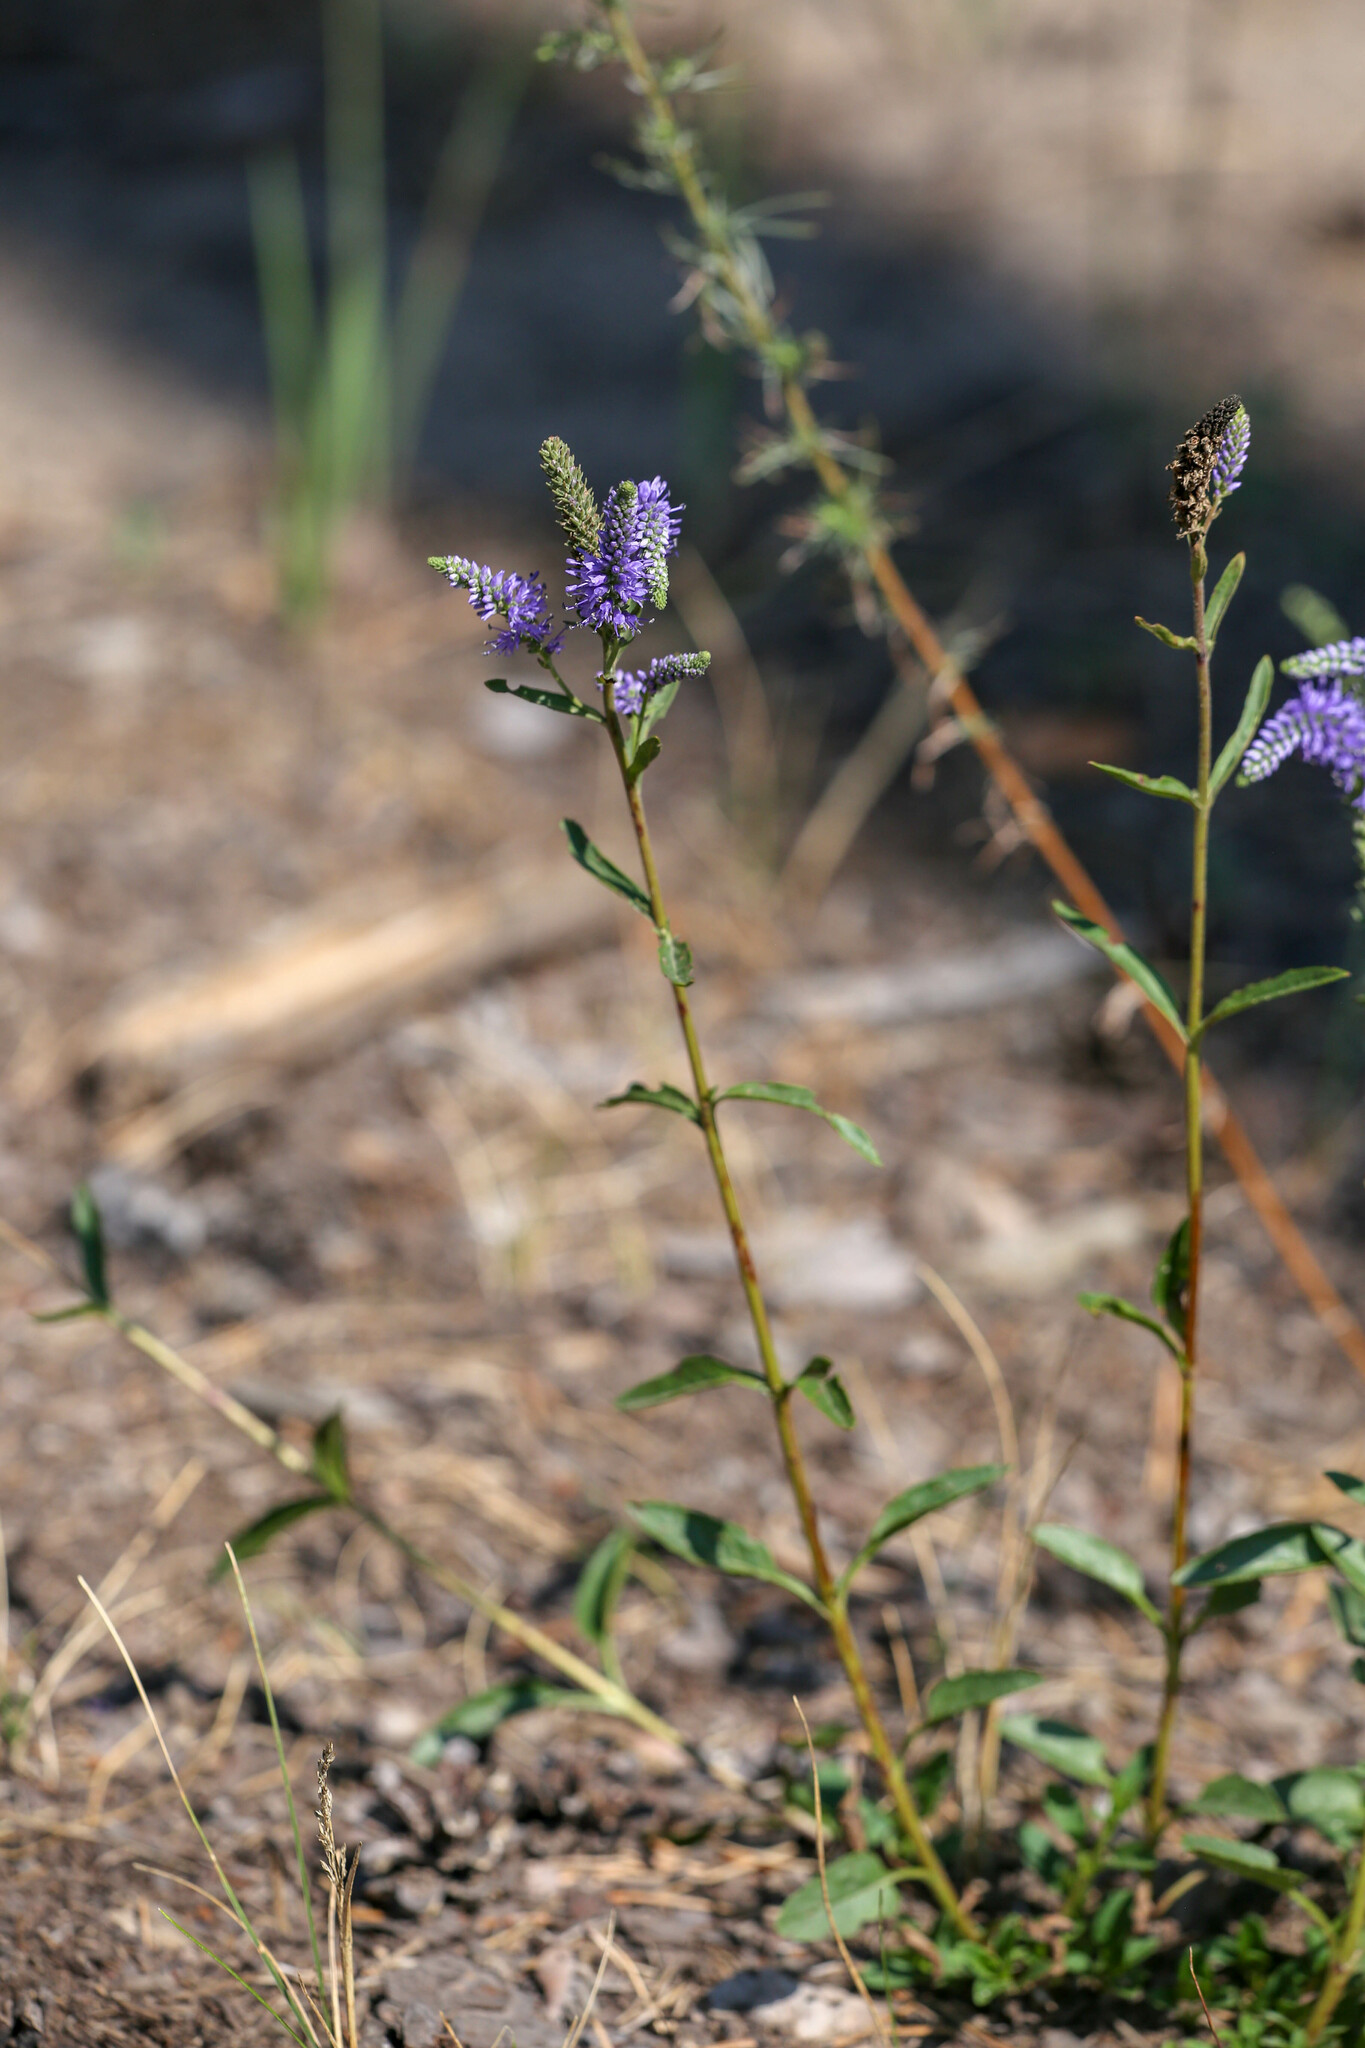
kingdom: Plantae
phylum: Tracheophyta
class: Magnoliopsida
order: Lamiales
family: Plantaginaceae
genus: Veronica
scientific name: Veronica spicata
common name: Spiked speedwell
